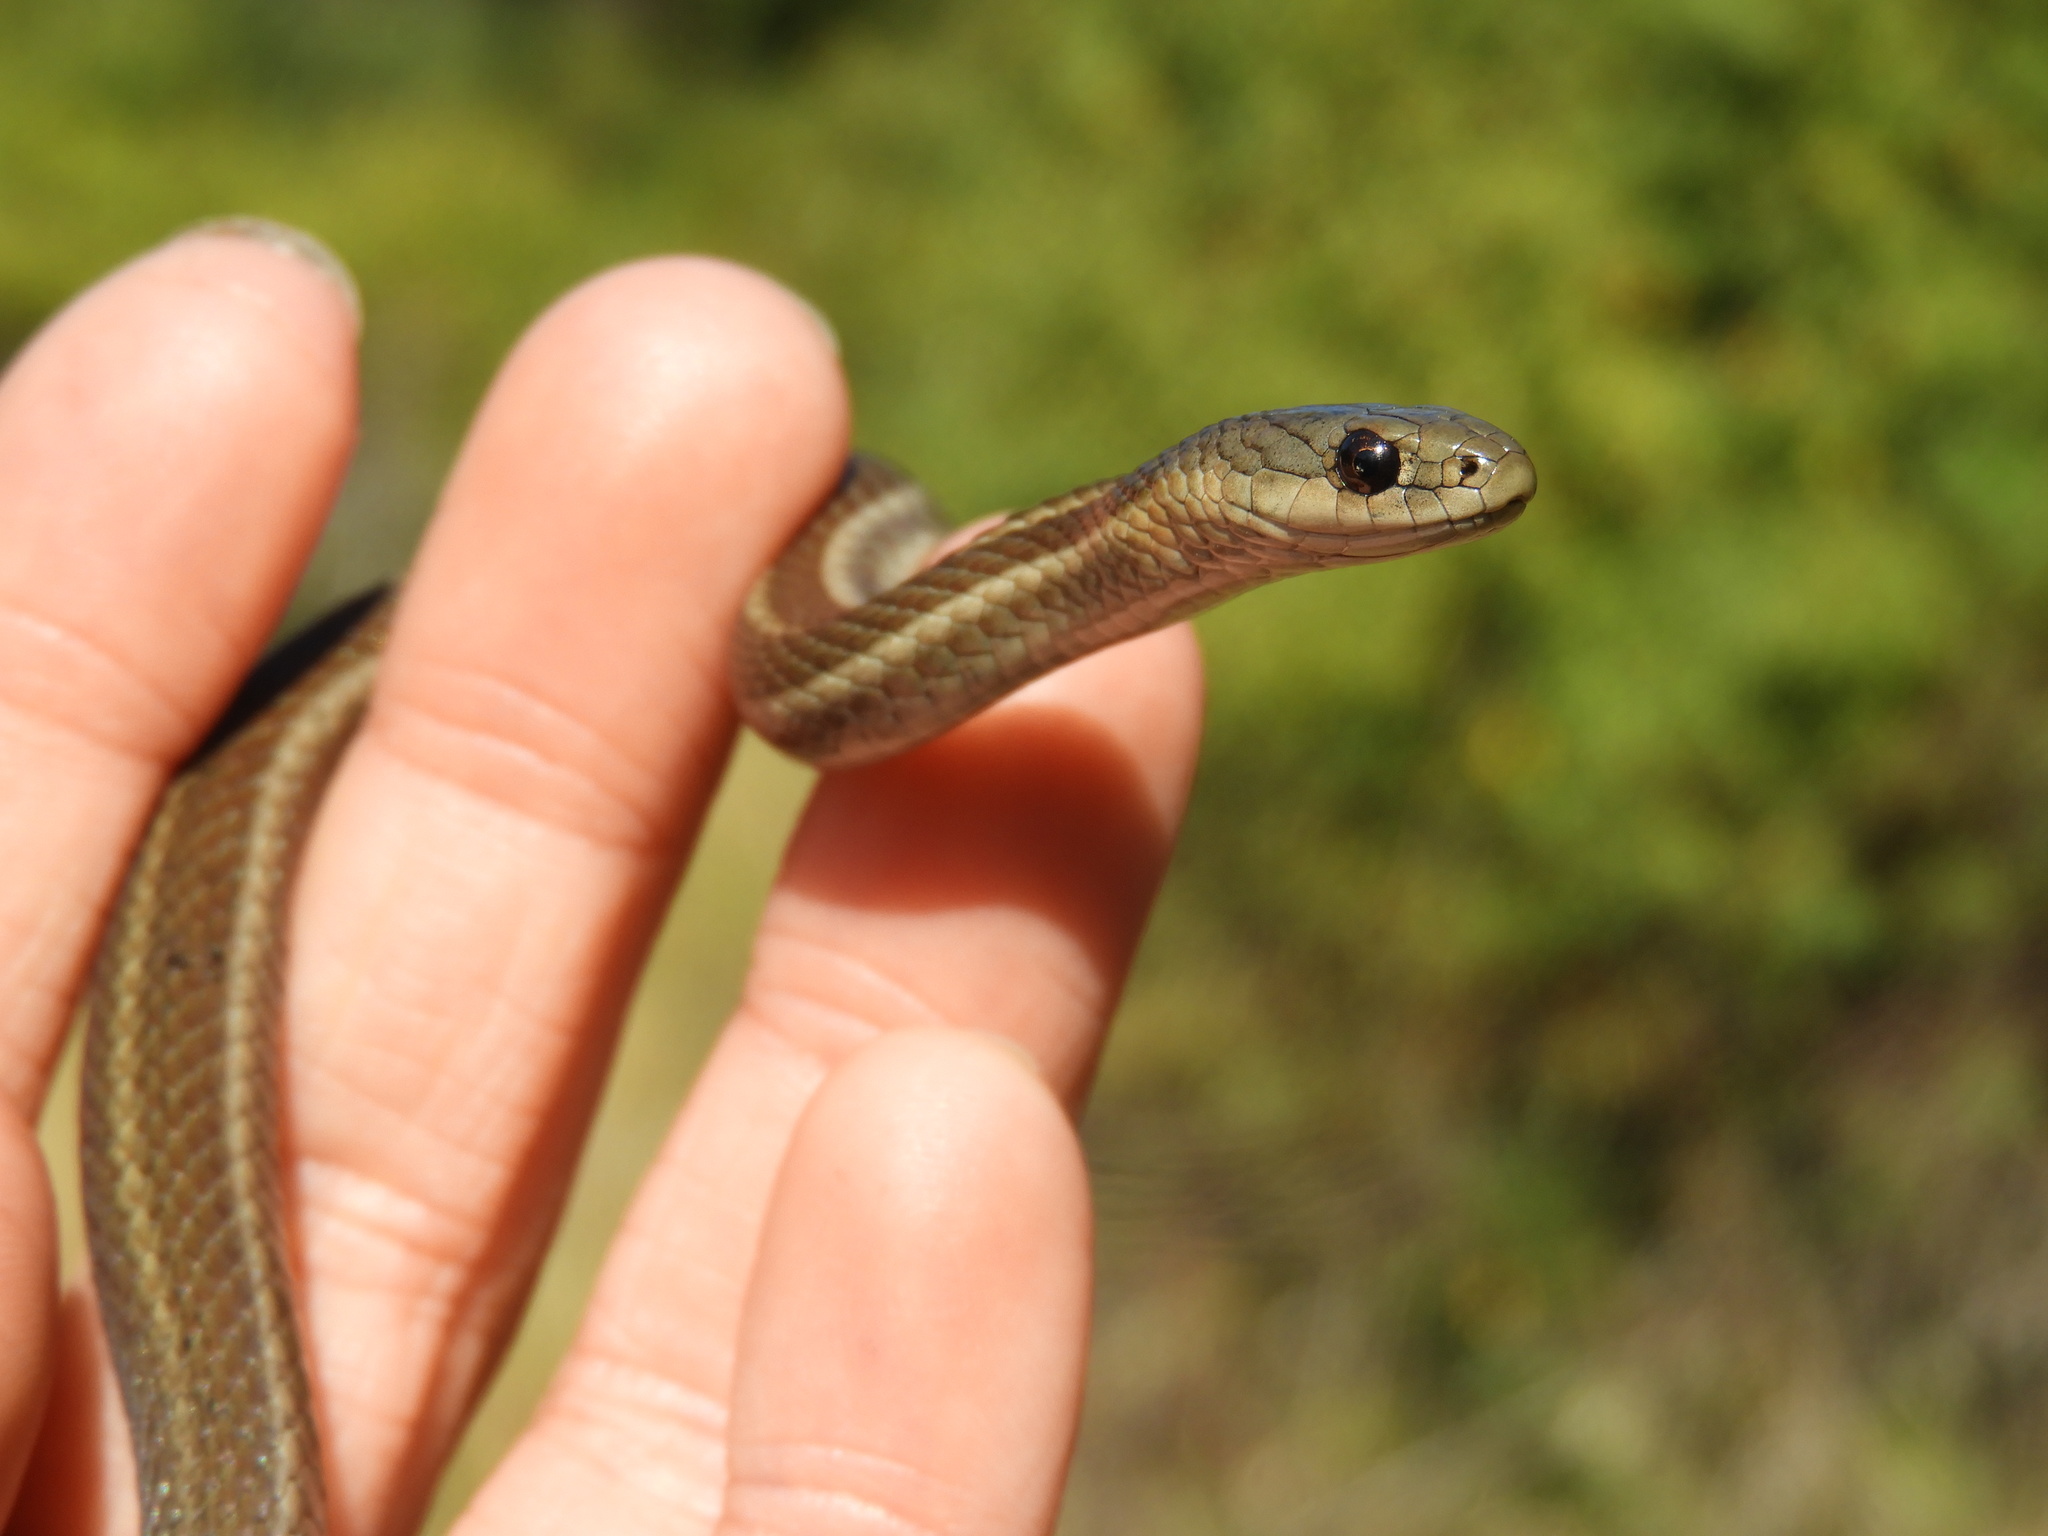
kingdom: Animalia
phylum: Chordata
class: Squamata
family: Colubridae
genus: Thamnophis
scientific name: Thamnophis ordinoides
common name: Northwestern garter snake
